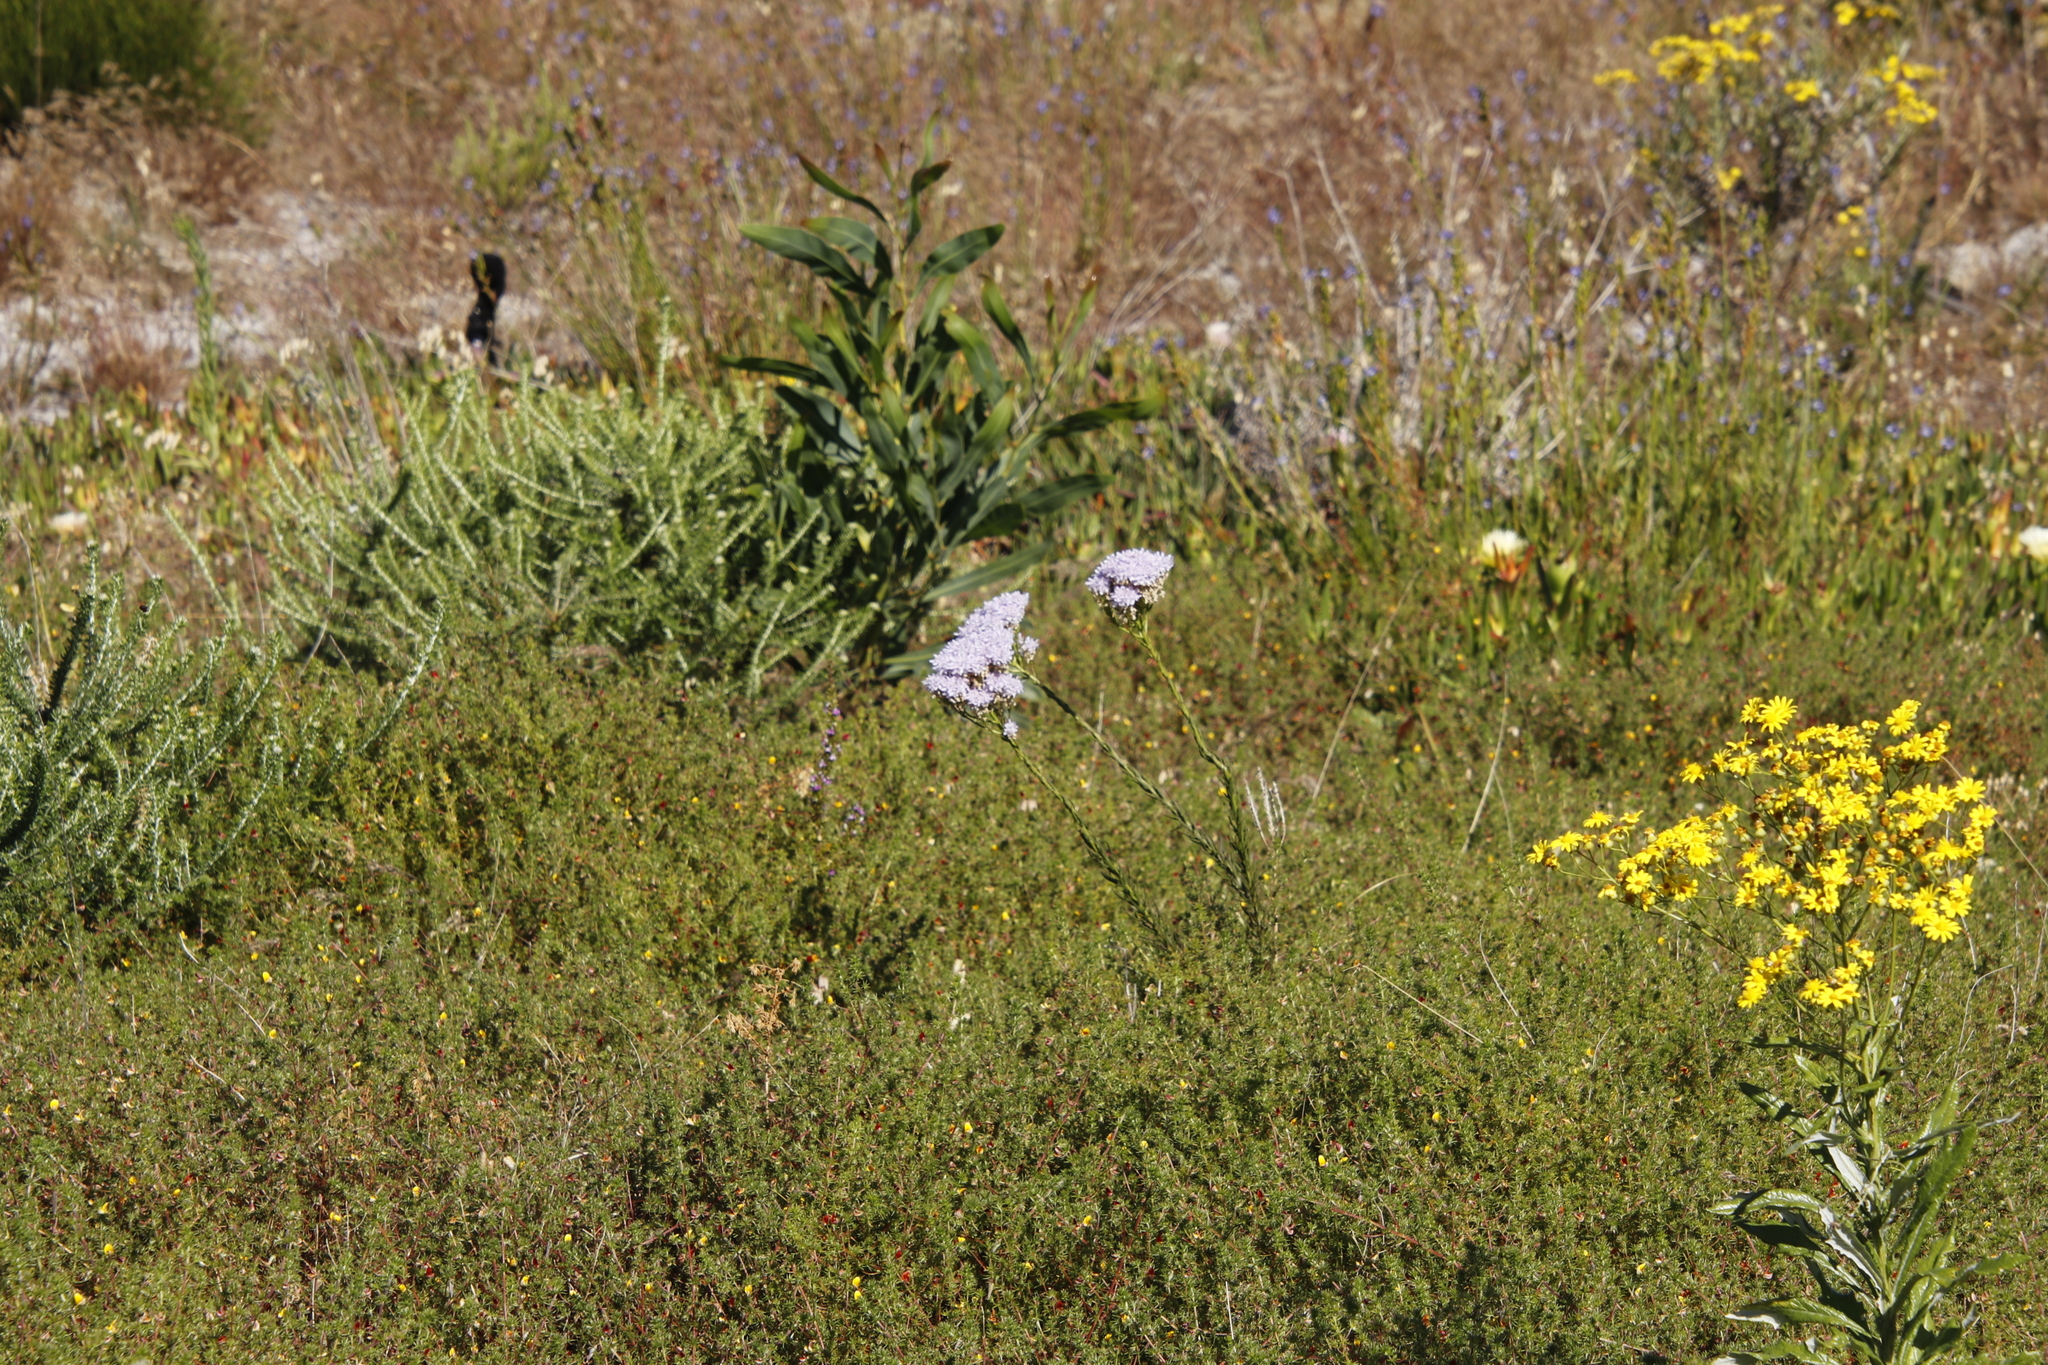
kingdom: Plantae
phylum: Tracheophyta
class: Magnoliopsida
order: Fabales
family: Fabaceae
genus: Acacia
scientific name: Acacia saligna
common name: Orange wattle
